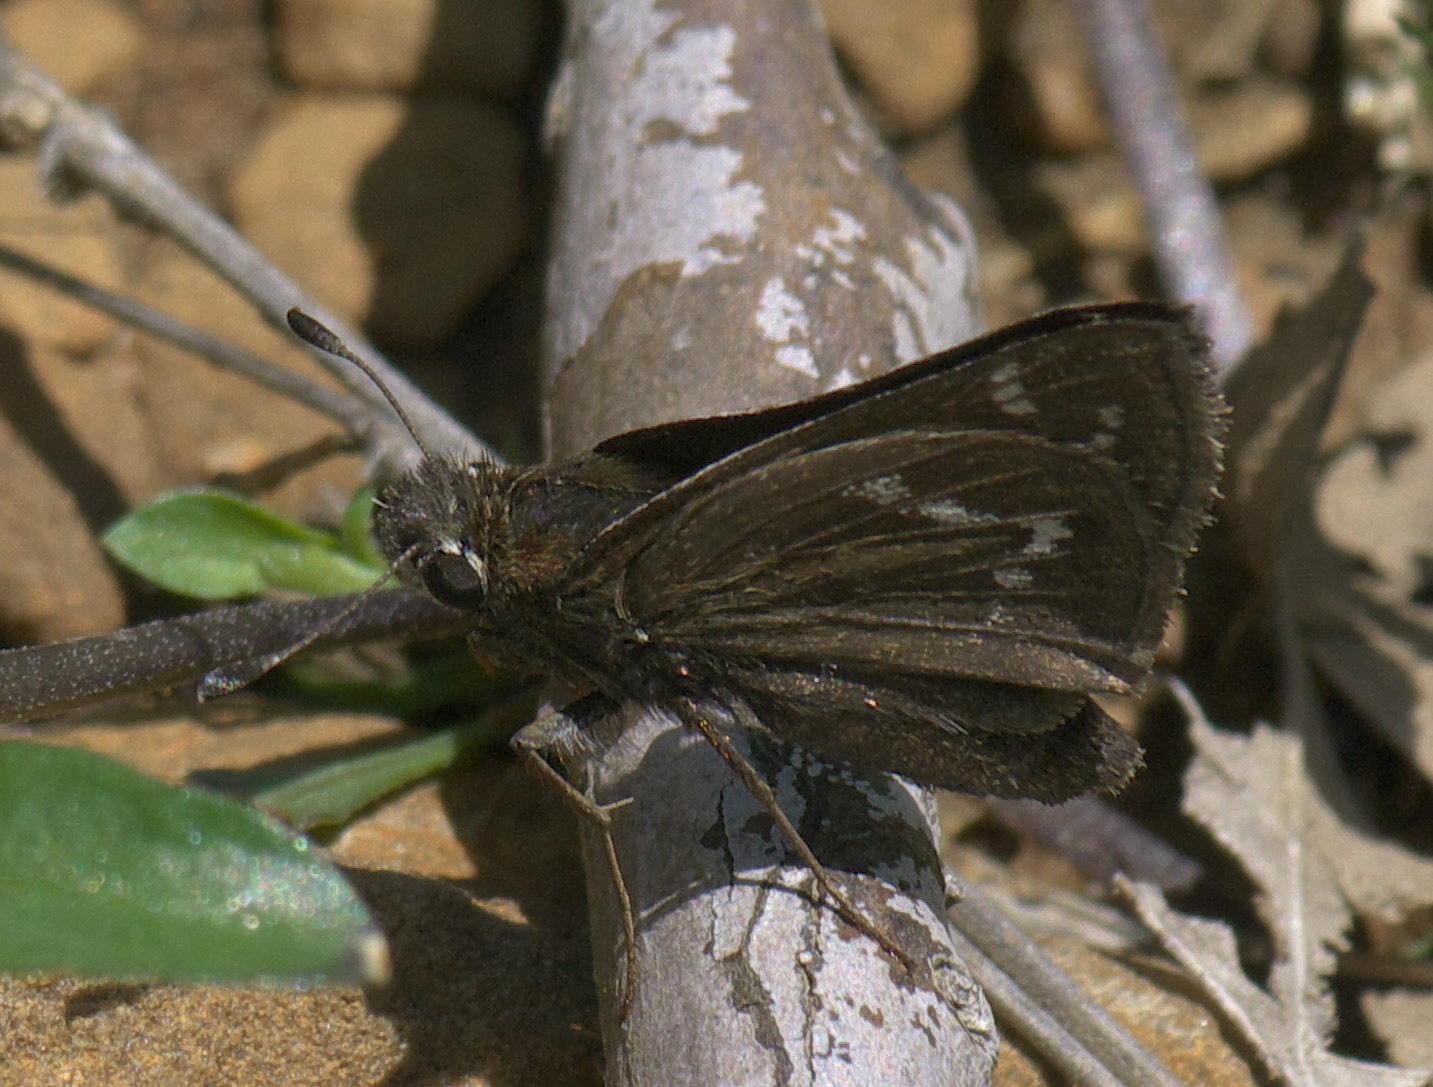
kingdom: Animalia
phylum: Arthropoda
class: Insecta
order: Lepidoptera
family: Hesperiidae
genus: Hesperia
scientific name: Hesperia metea
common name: Cobweb skipper
